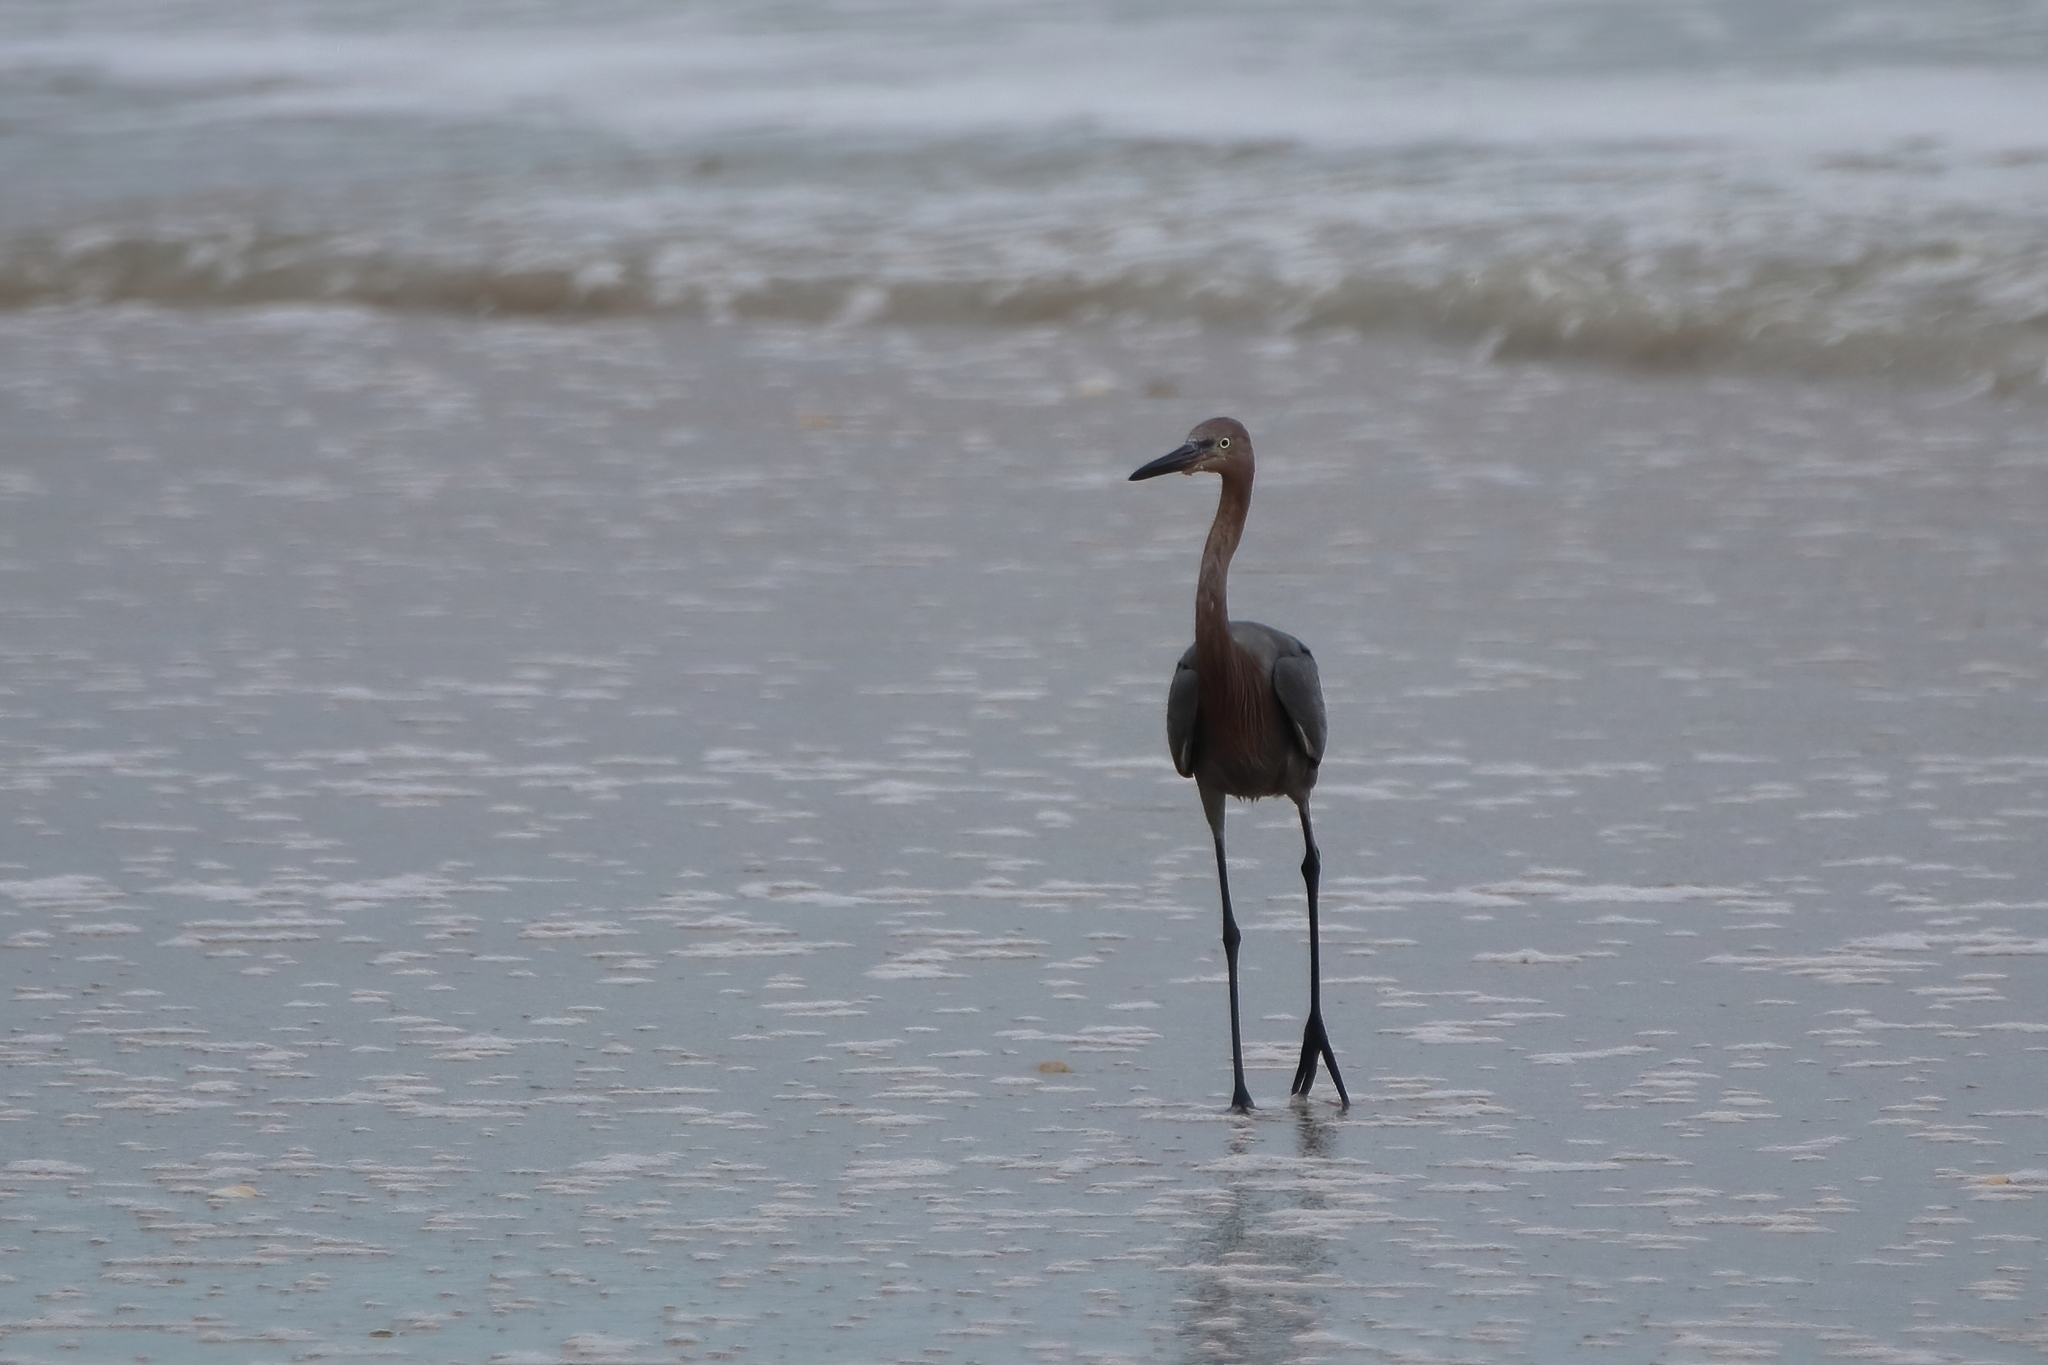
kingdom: Animalia
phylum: Chordata
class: Aves
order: Pelecaniformes
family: Ardeidae
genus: Egretta
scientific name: Egretta rufescens
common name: Reddish egret
